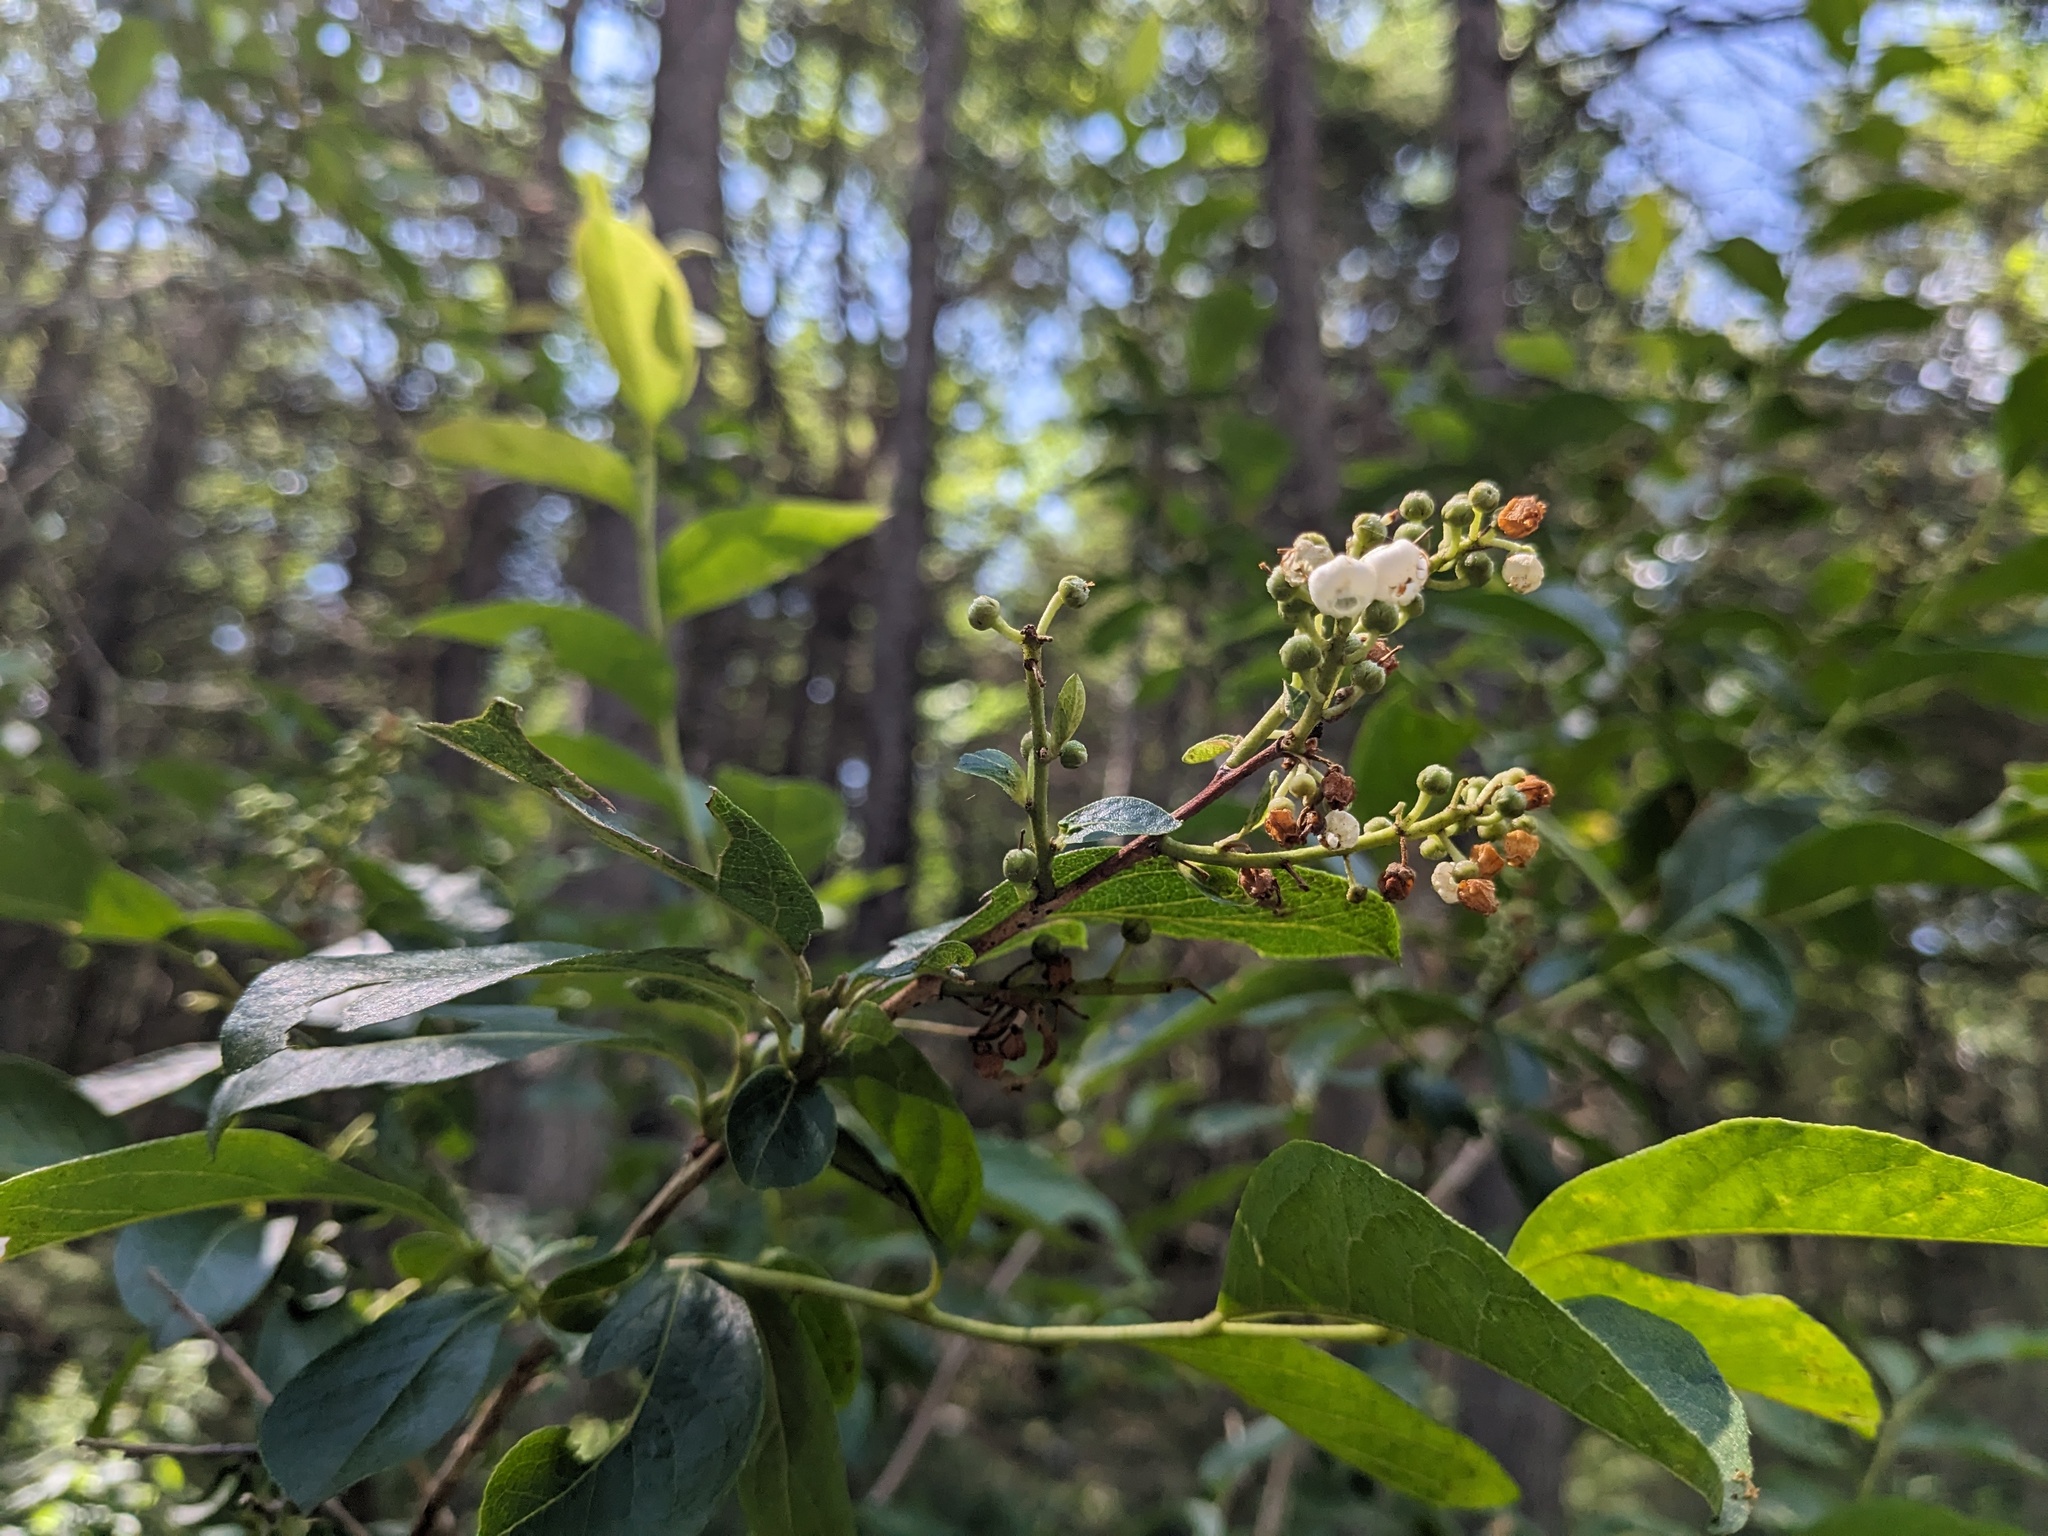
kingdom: Plantae
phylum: Tracheophyta
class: Magnoliopsida
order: Ericales
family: Ericaceae
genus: Lyonia
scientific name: Lyonia ligustrina
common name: Maleberry
